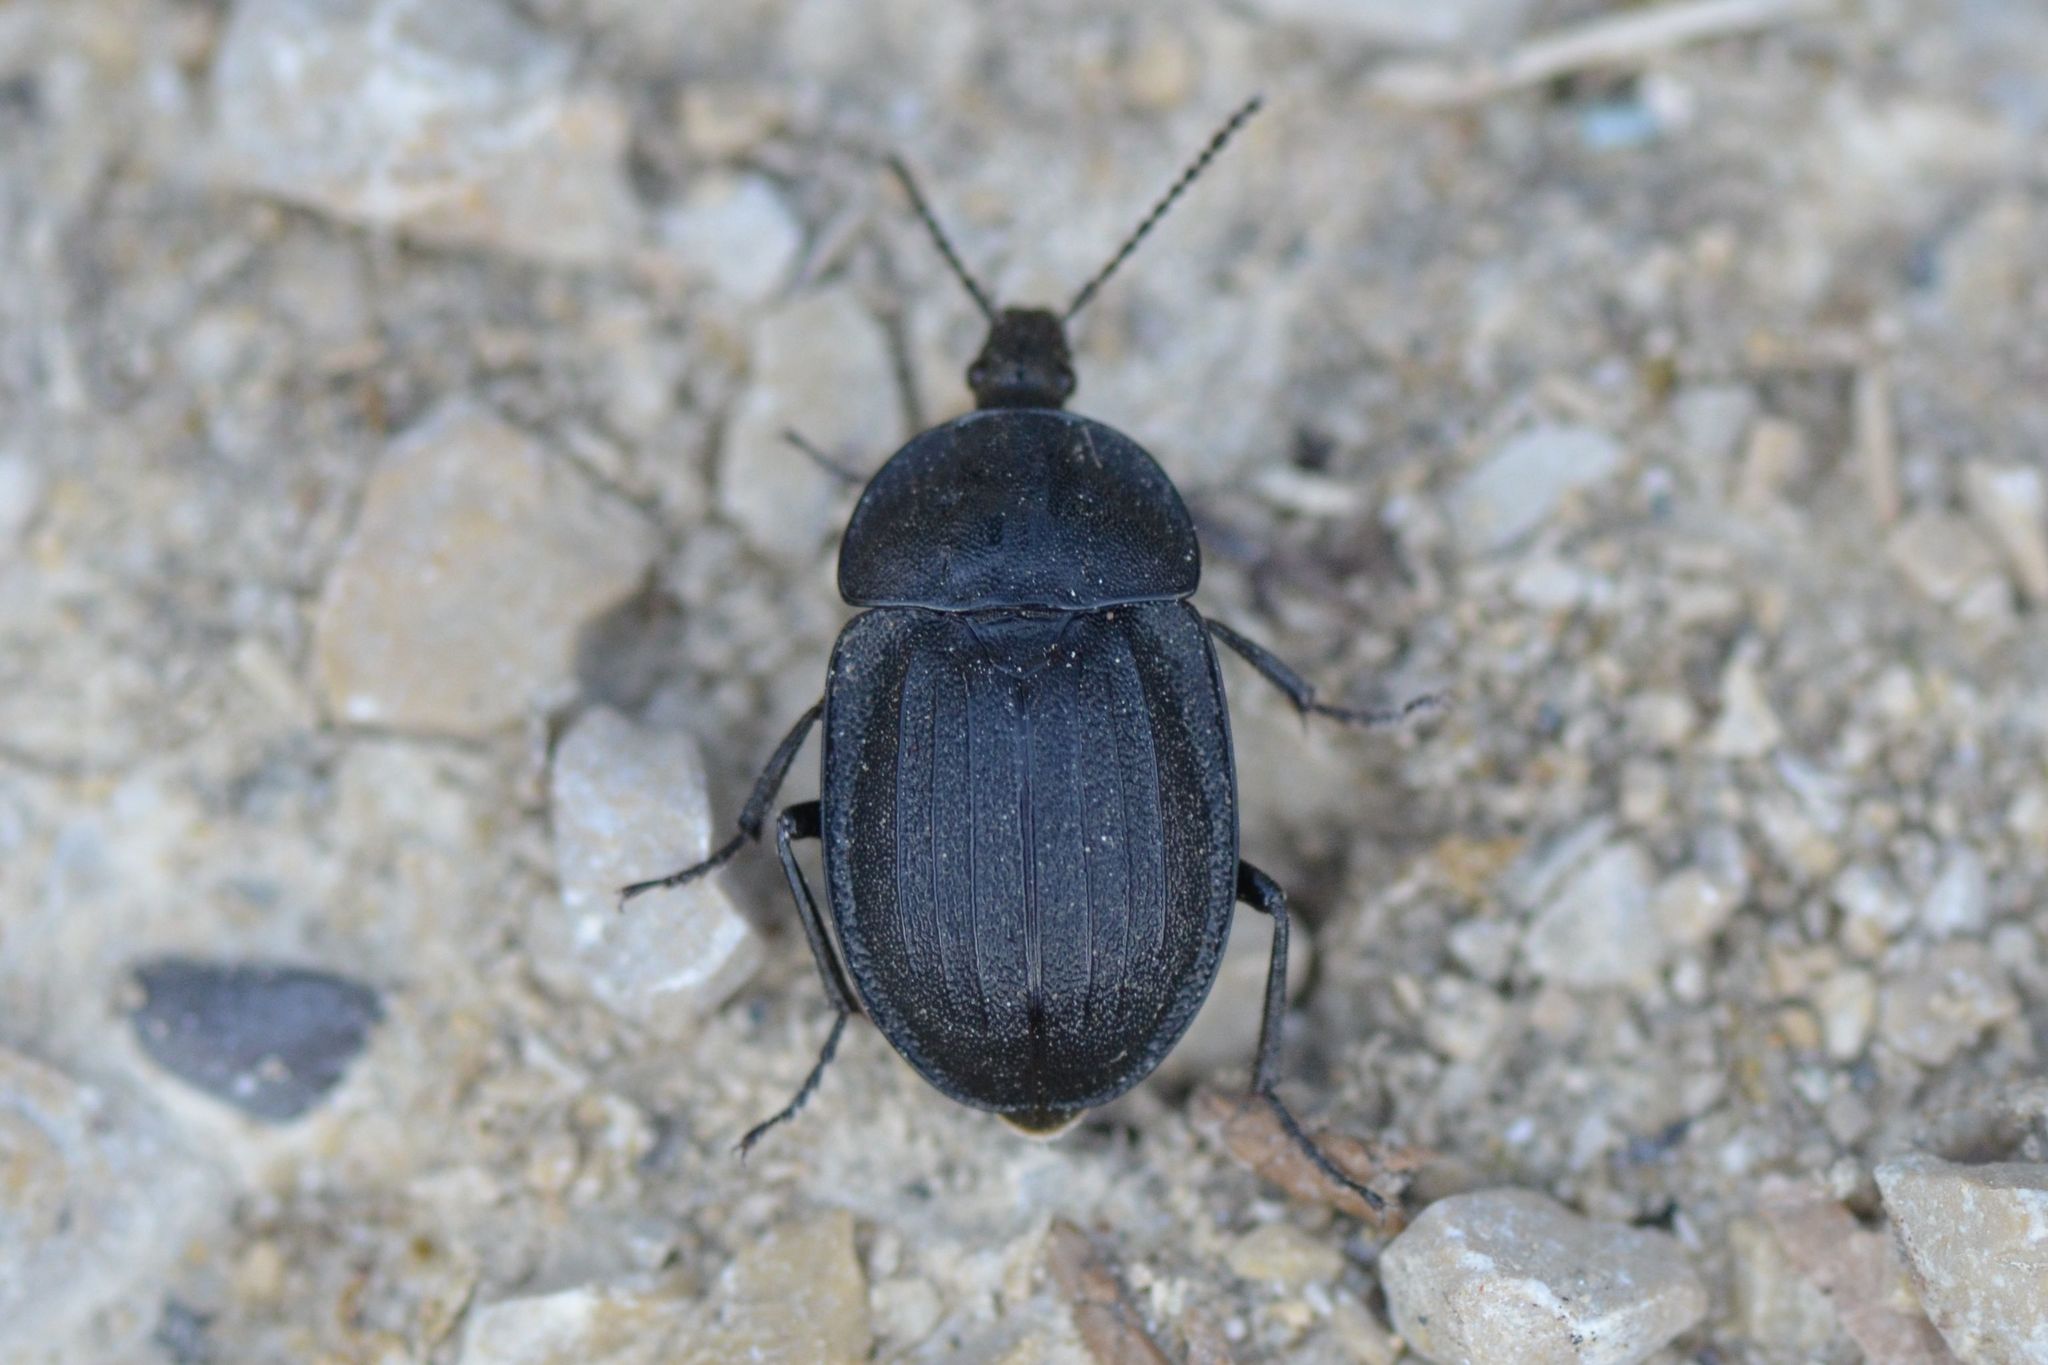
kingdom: Animalia
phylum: Arthropoda
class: Insecta
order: Coleoptera
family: Staphylinidae
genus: Silpha
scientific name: Silpha atrata
